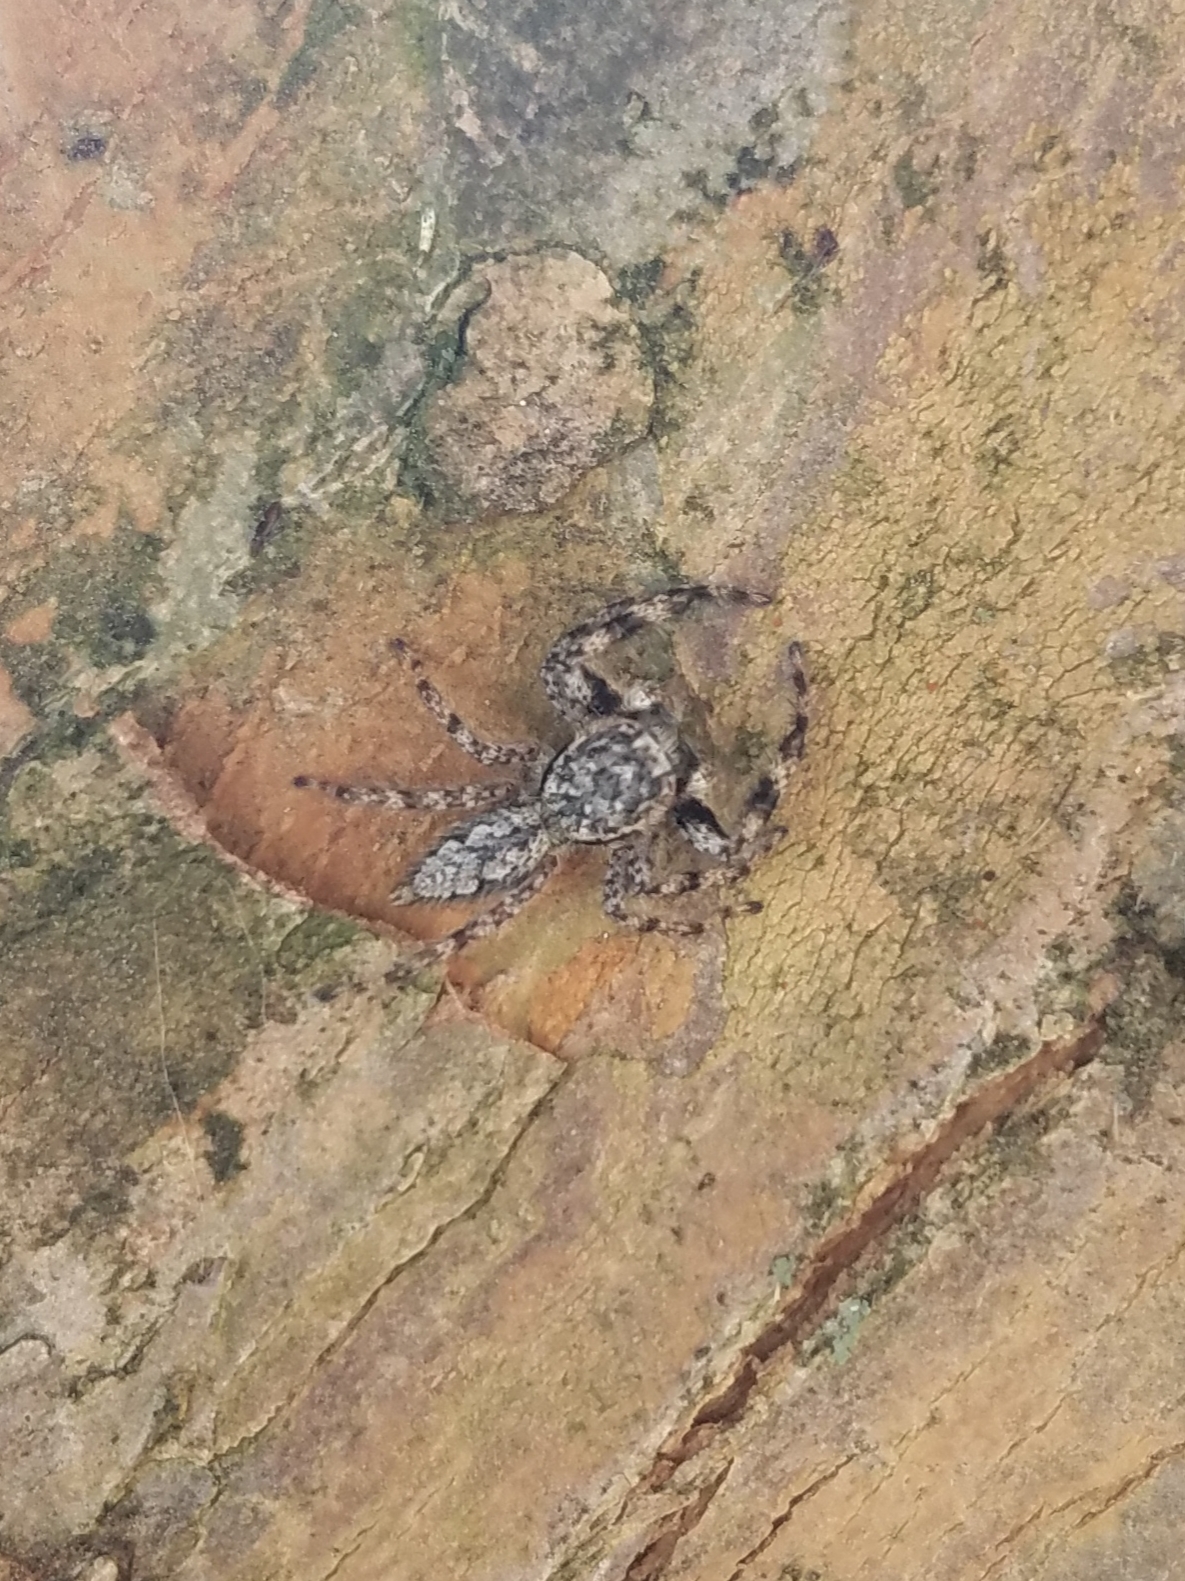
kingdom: Animalia
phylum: Arthropoda
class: Arachnida
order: Araneae
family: Salticidae
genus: Platycryptus
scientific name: Platycryptus undatus
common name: Tan jumping spider
